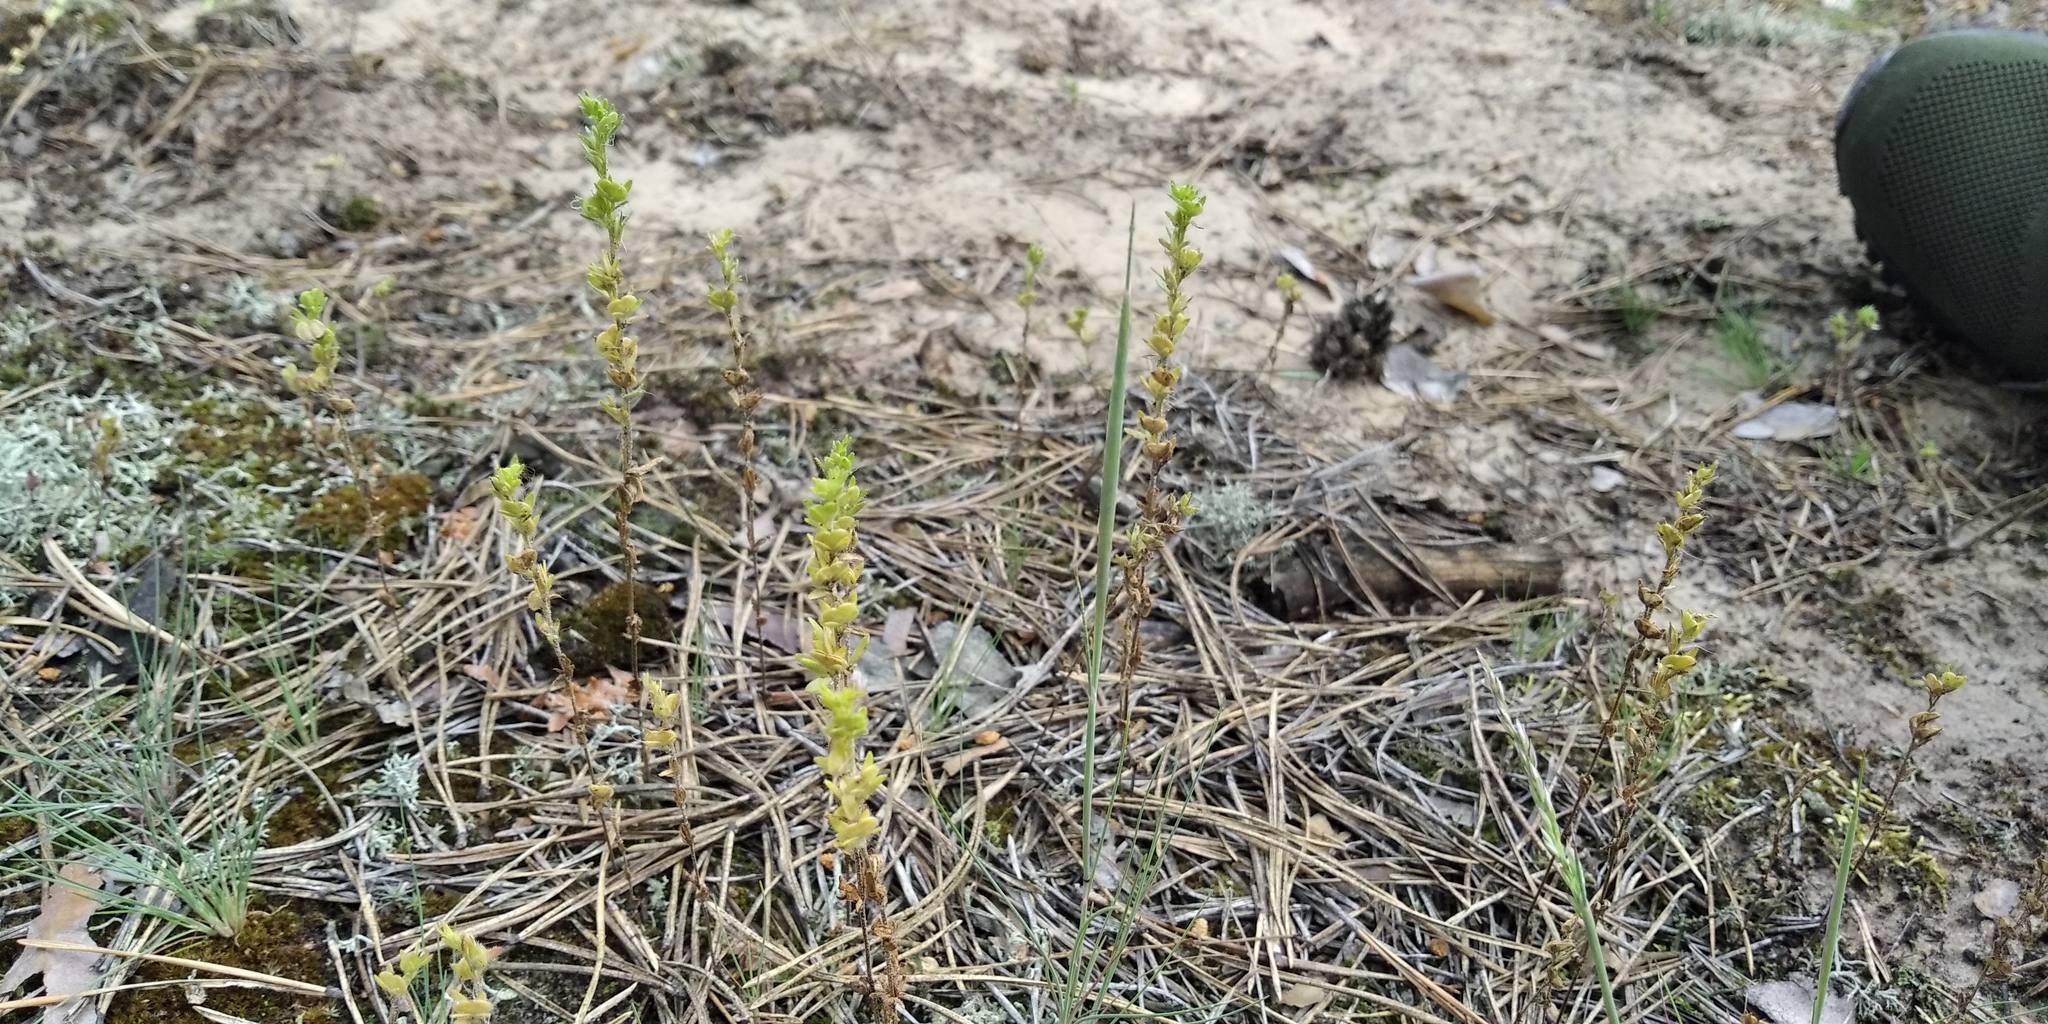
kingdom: Plantae
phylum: Tracheophyta
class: Magnoliopsida
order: Lamiales
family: Plantaginaceae
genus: Veronica
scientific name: Veronica dillenii
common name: Dillenius' speedwell
